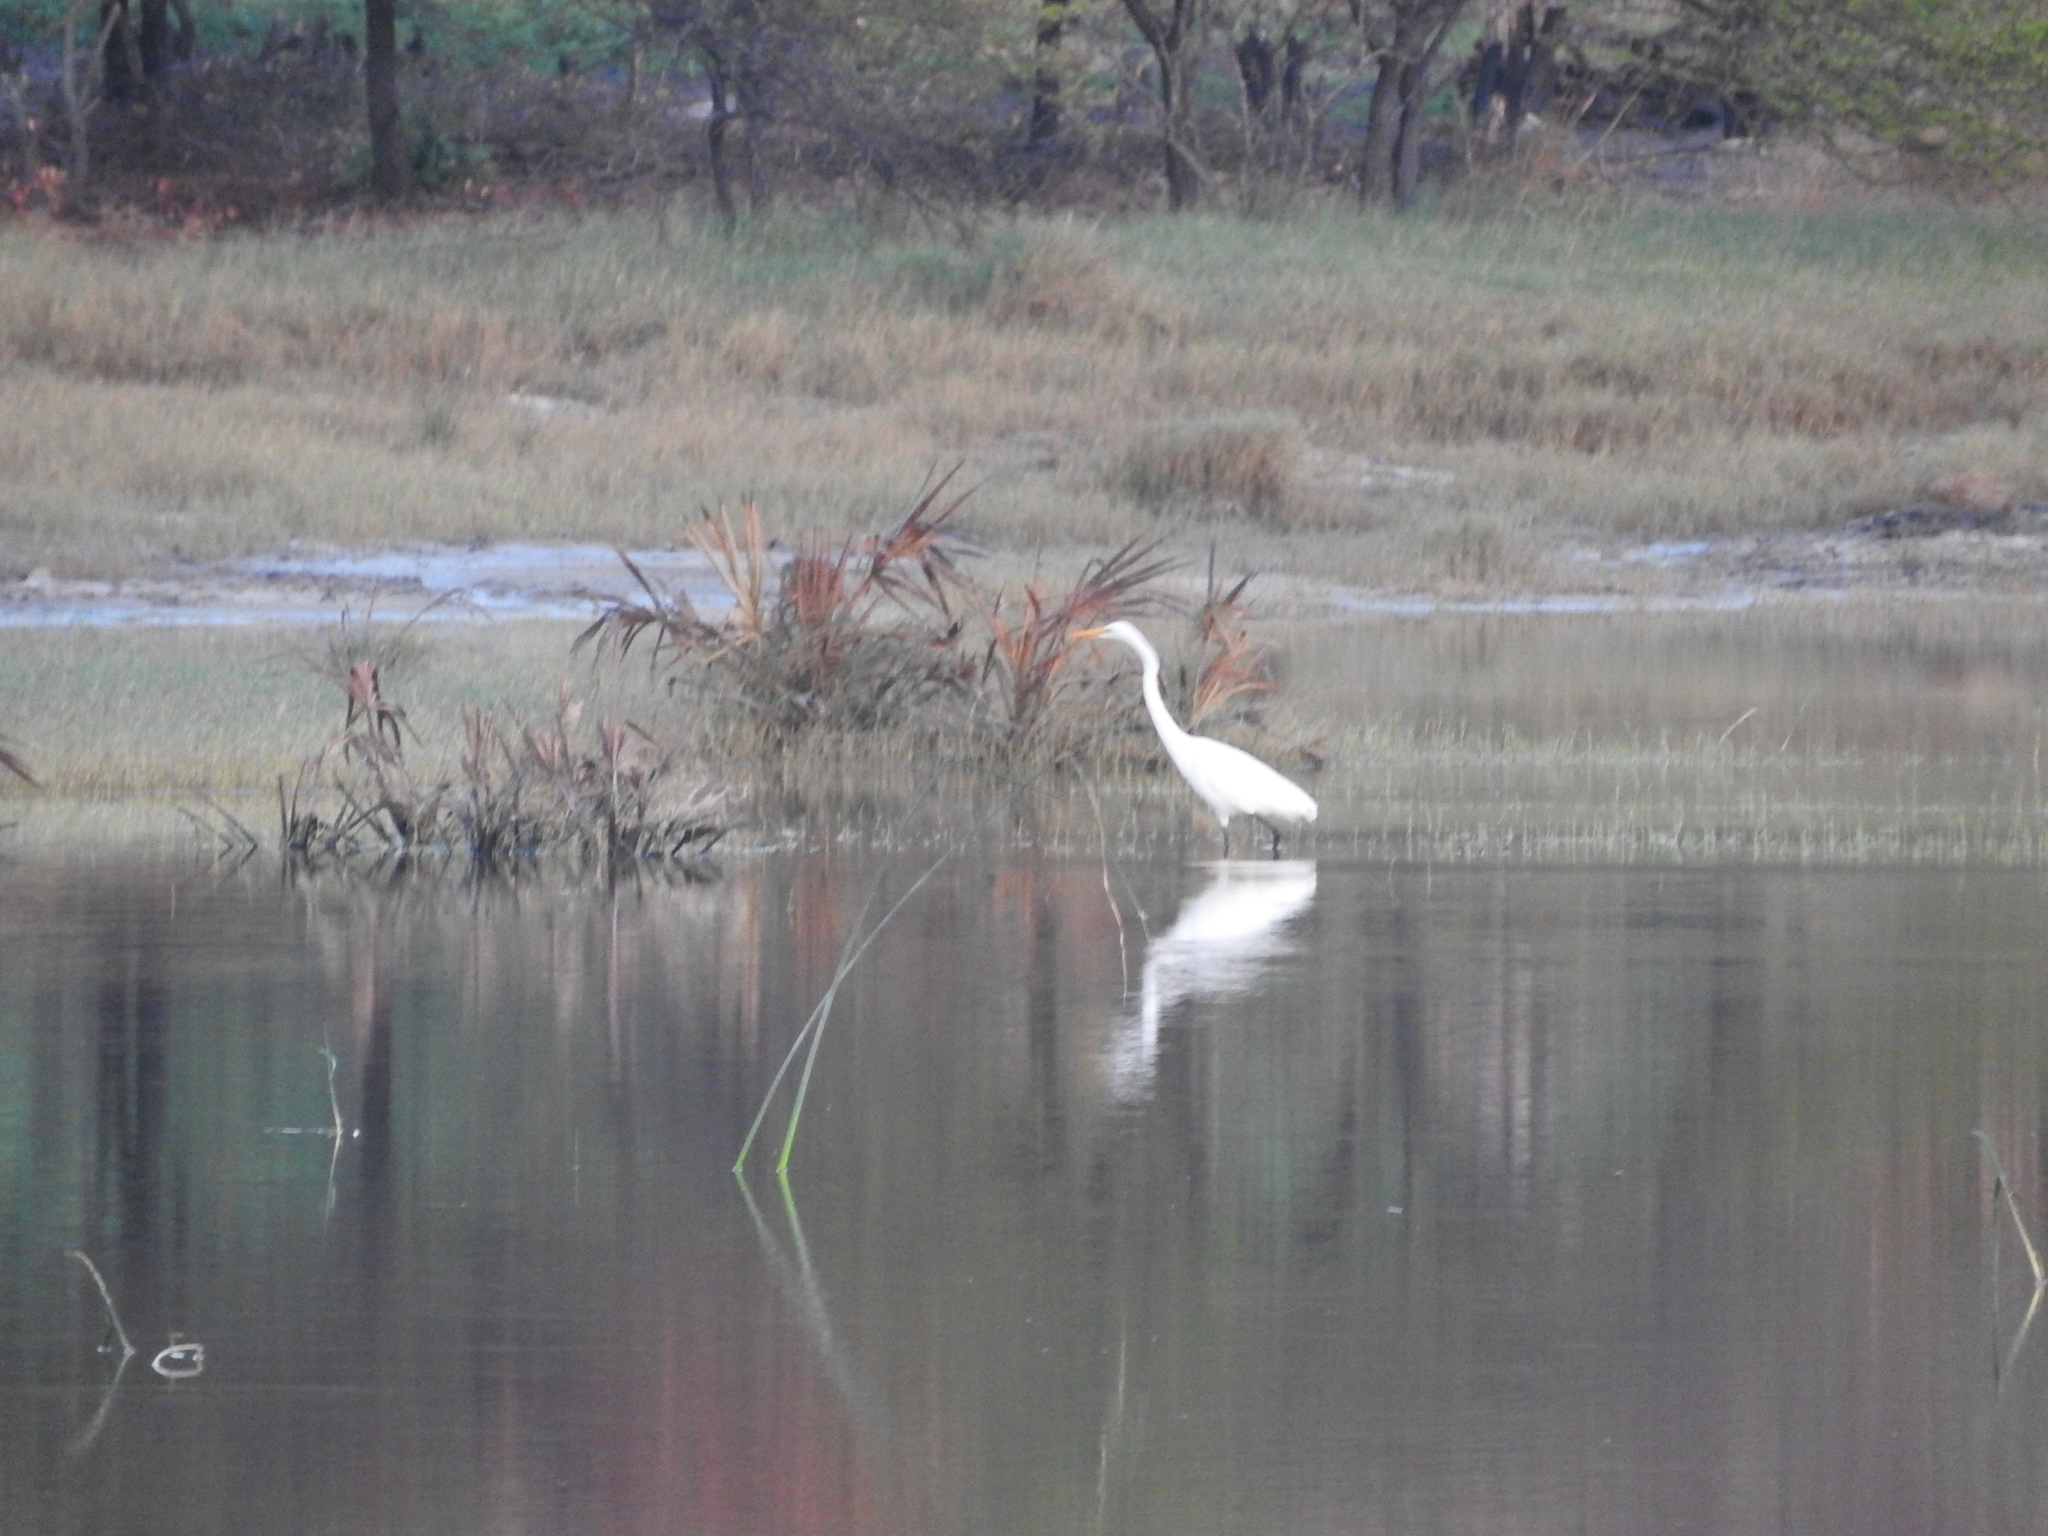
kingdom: Animalia
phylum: Chordata
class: Aves
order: Pelecaniformes
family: Ardeidae
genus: Ardea
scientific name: Ardea alba
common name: Great egret
